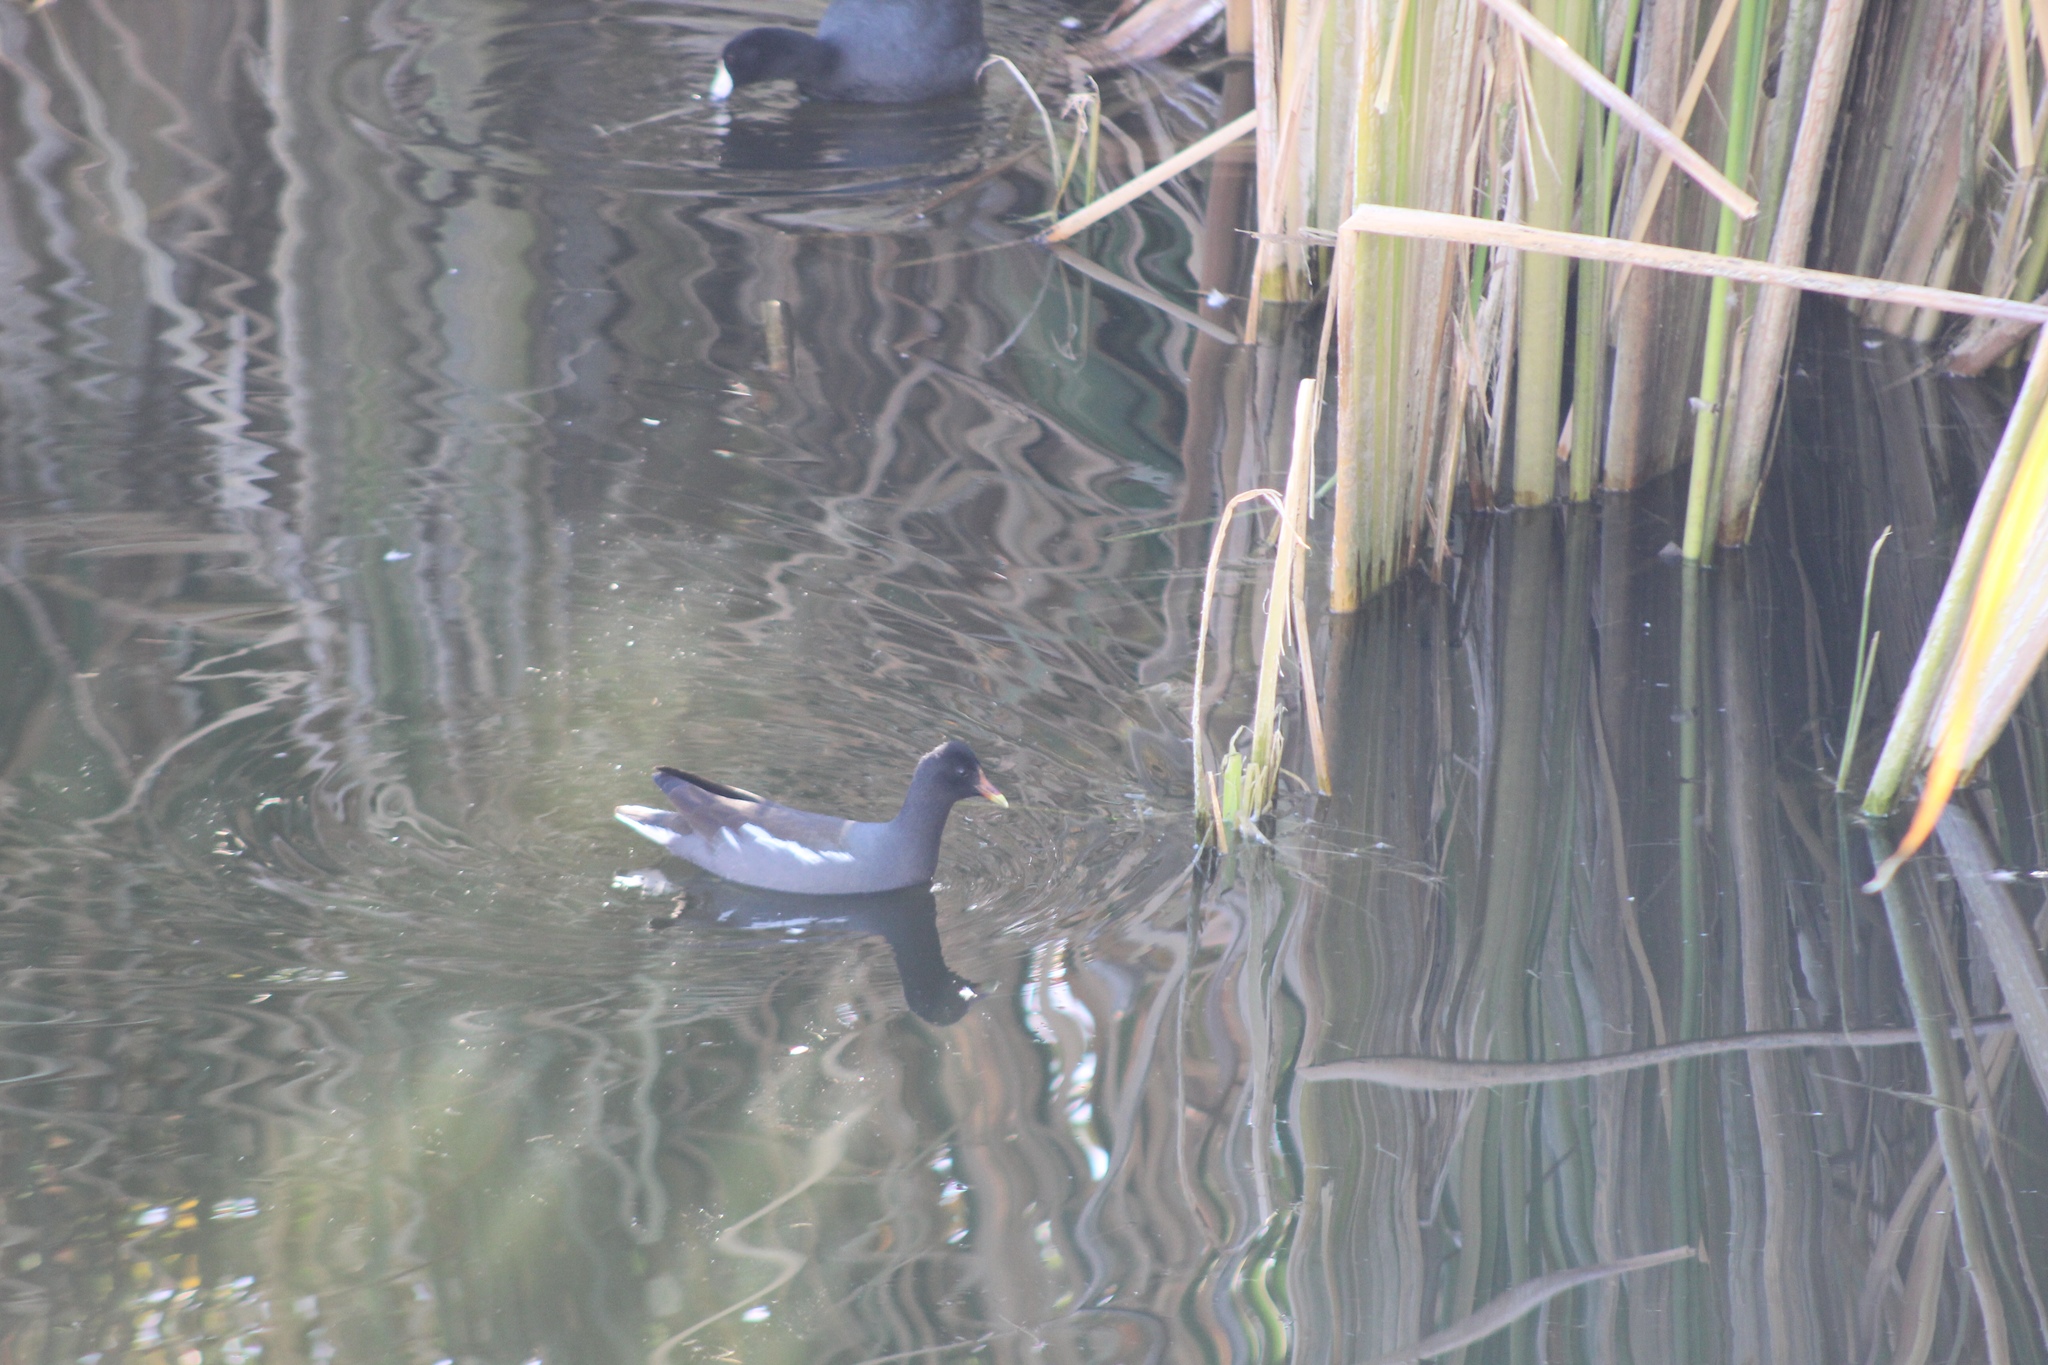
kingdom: Animalia
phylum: Chordata
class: Aves
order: Gruiformes
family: Rallidae
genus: Gallinula
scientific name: Gallinula chloropus
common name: Common moorhen
